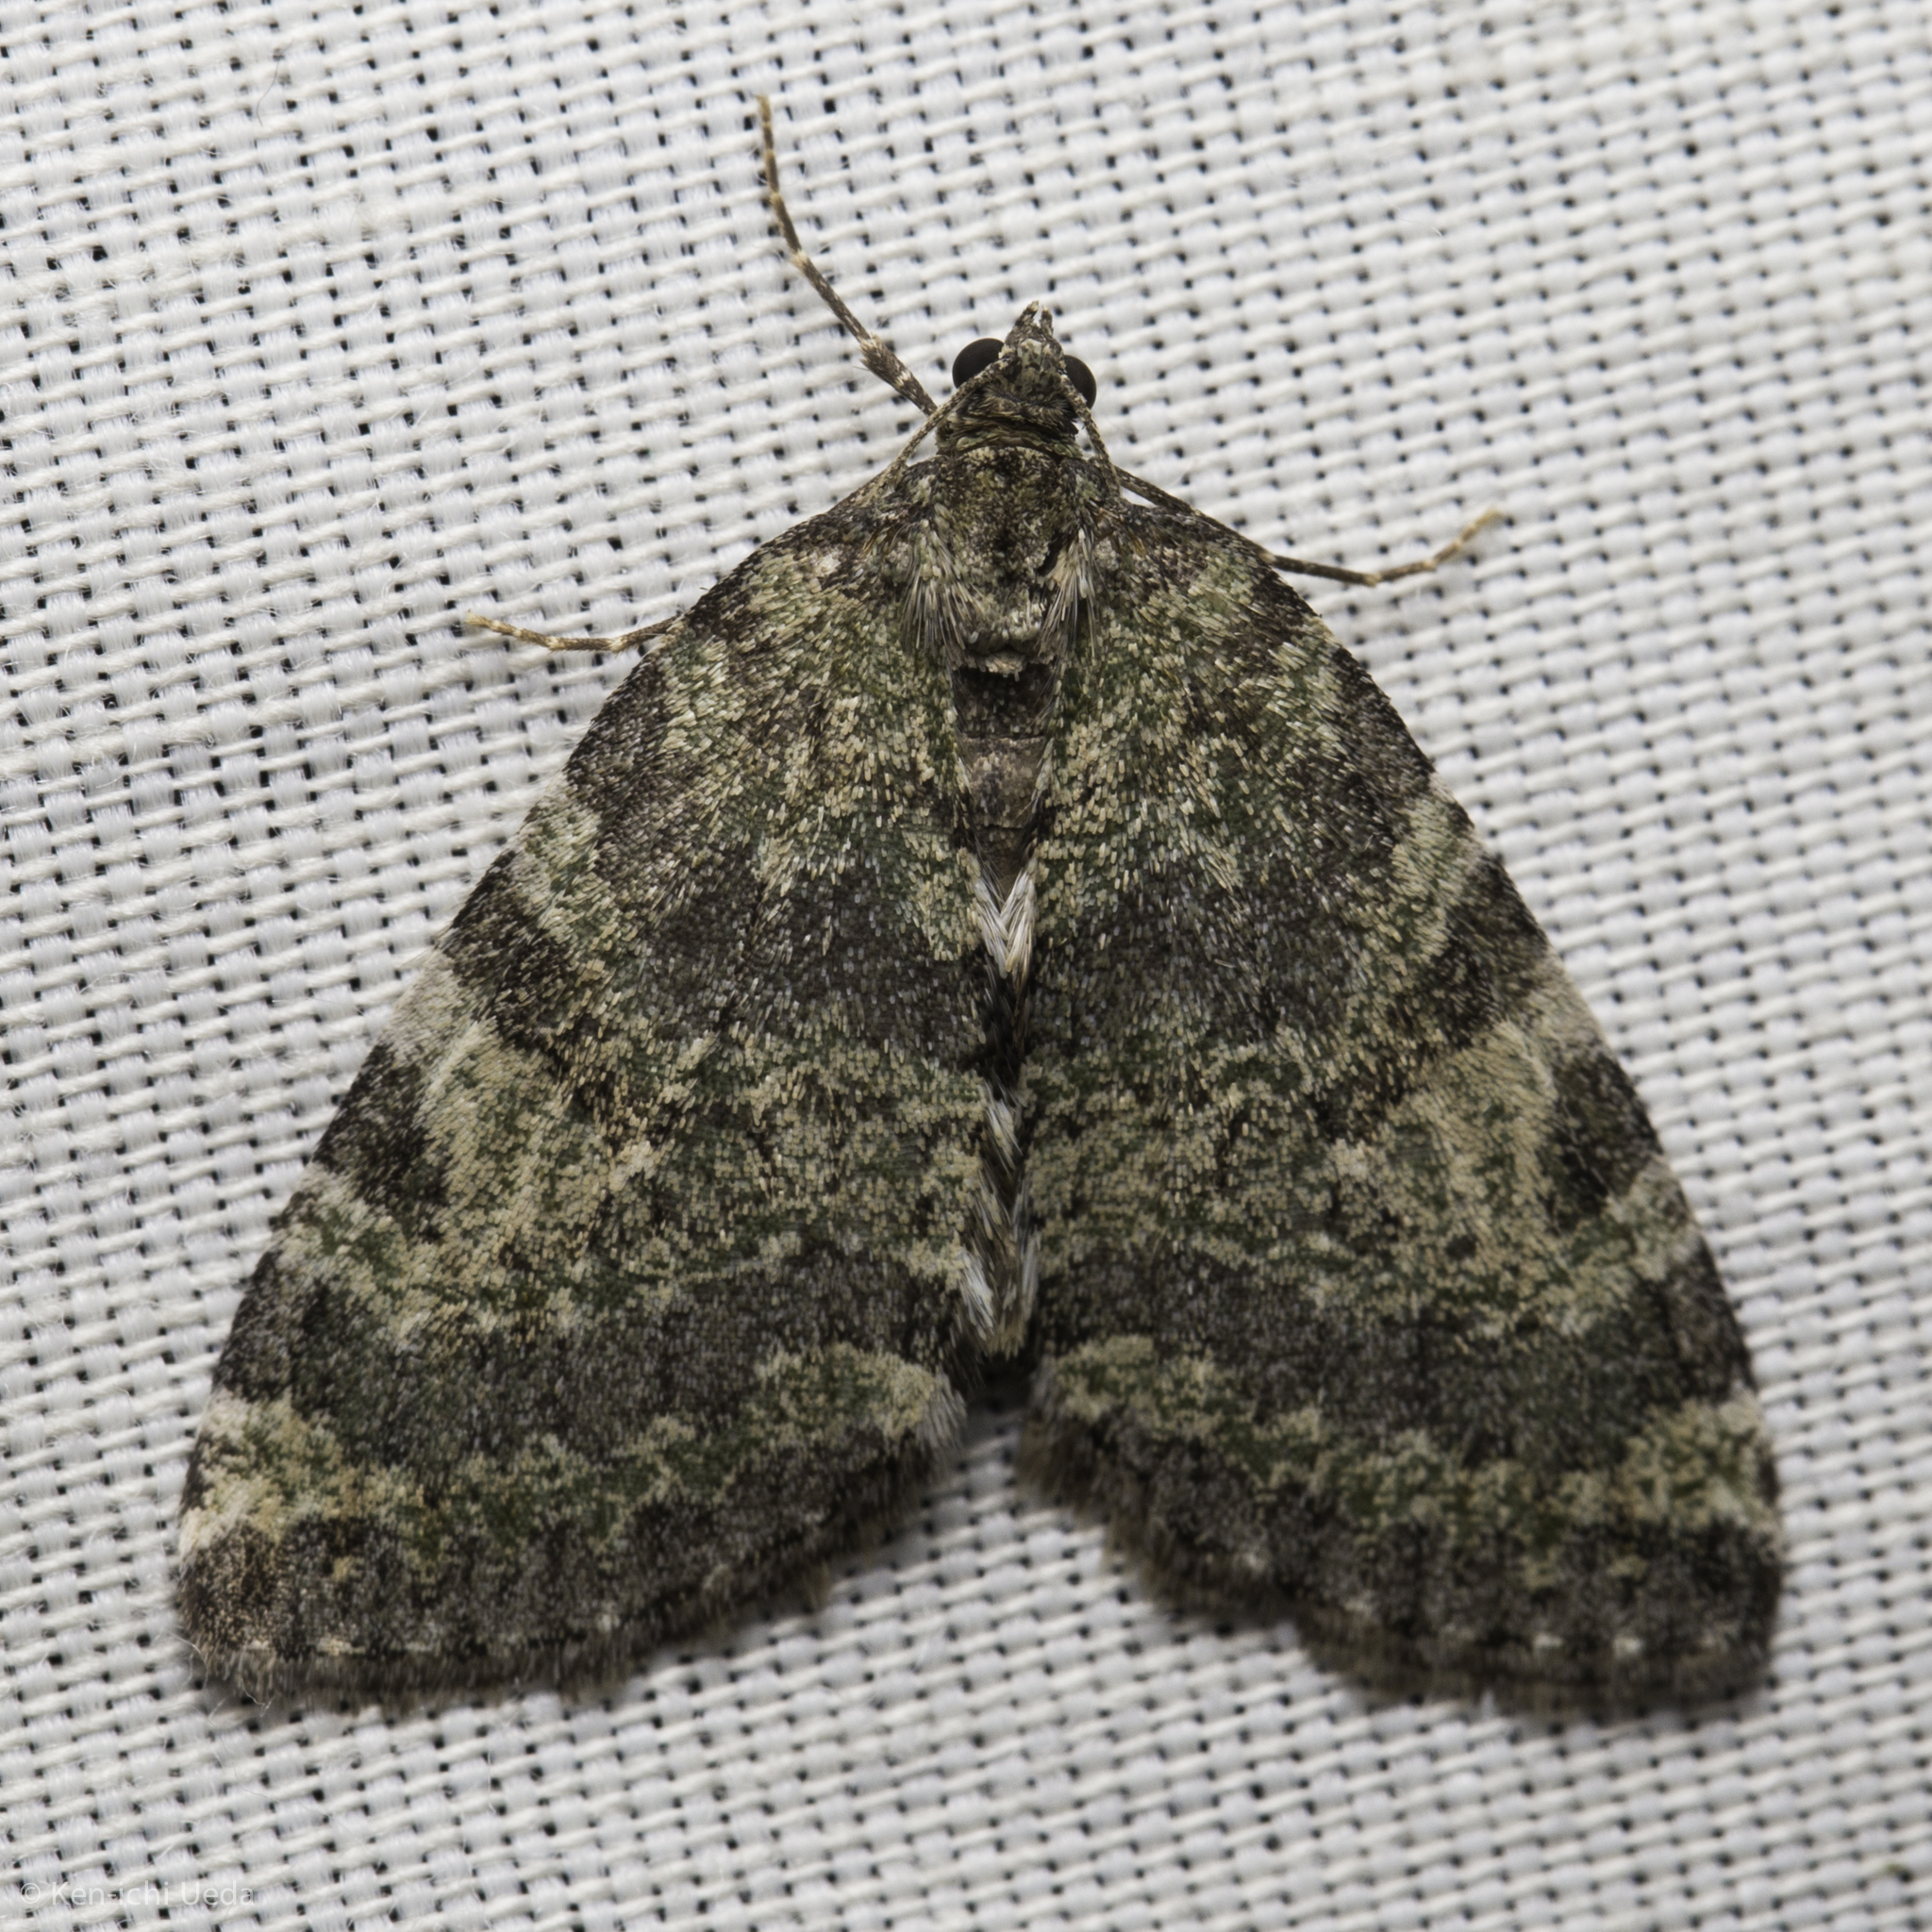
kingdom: Animalia
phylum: Arthropoda
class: Insecta
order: Lepidoptera
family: Geometridae
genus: Hydriomena
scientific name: Hydriomena nubilofasciata
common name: Oak winter highflier moth
